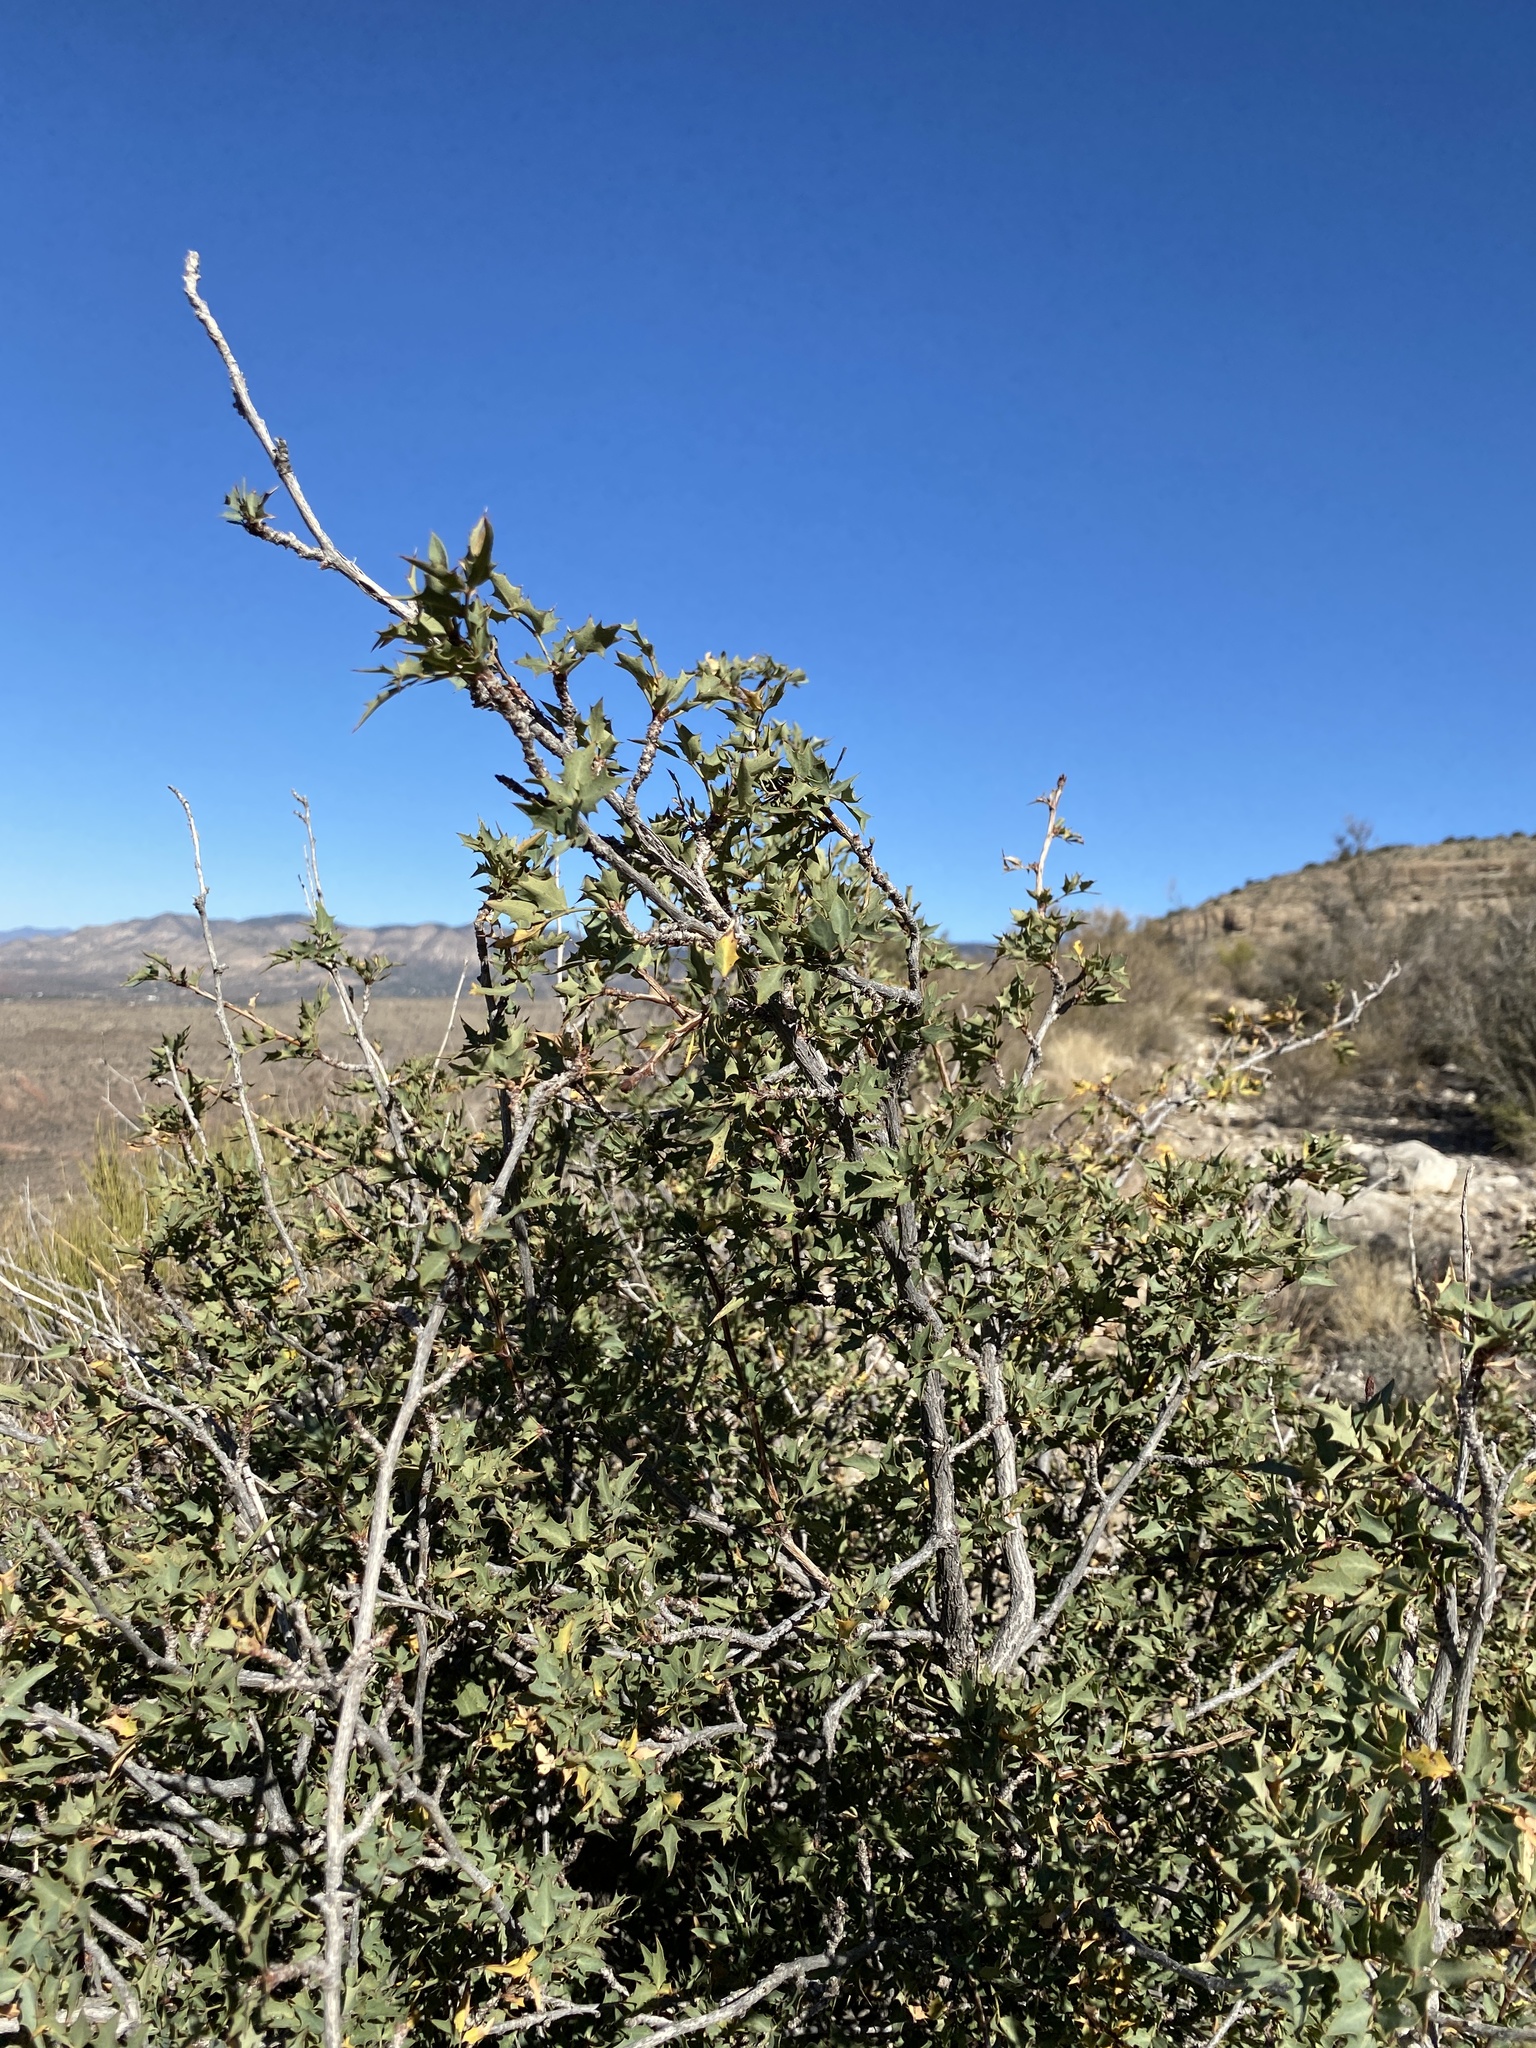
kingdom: Plantae
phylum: Tracheophyta
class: Magnoliopsida
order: Ranunculales
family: Berberidaceae
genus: Alloberberis
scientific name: Alloberberis haematocarpa
